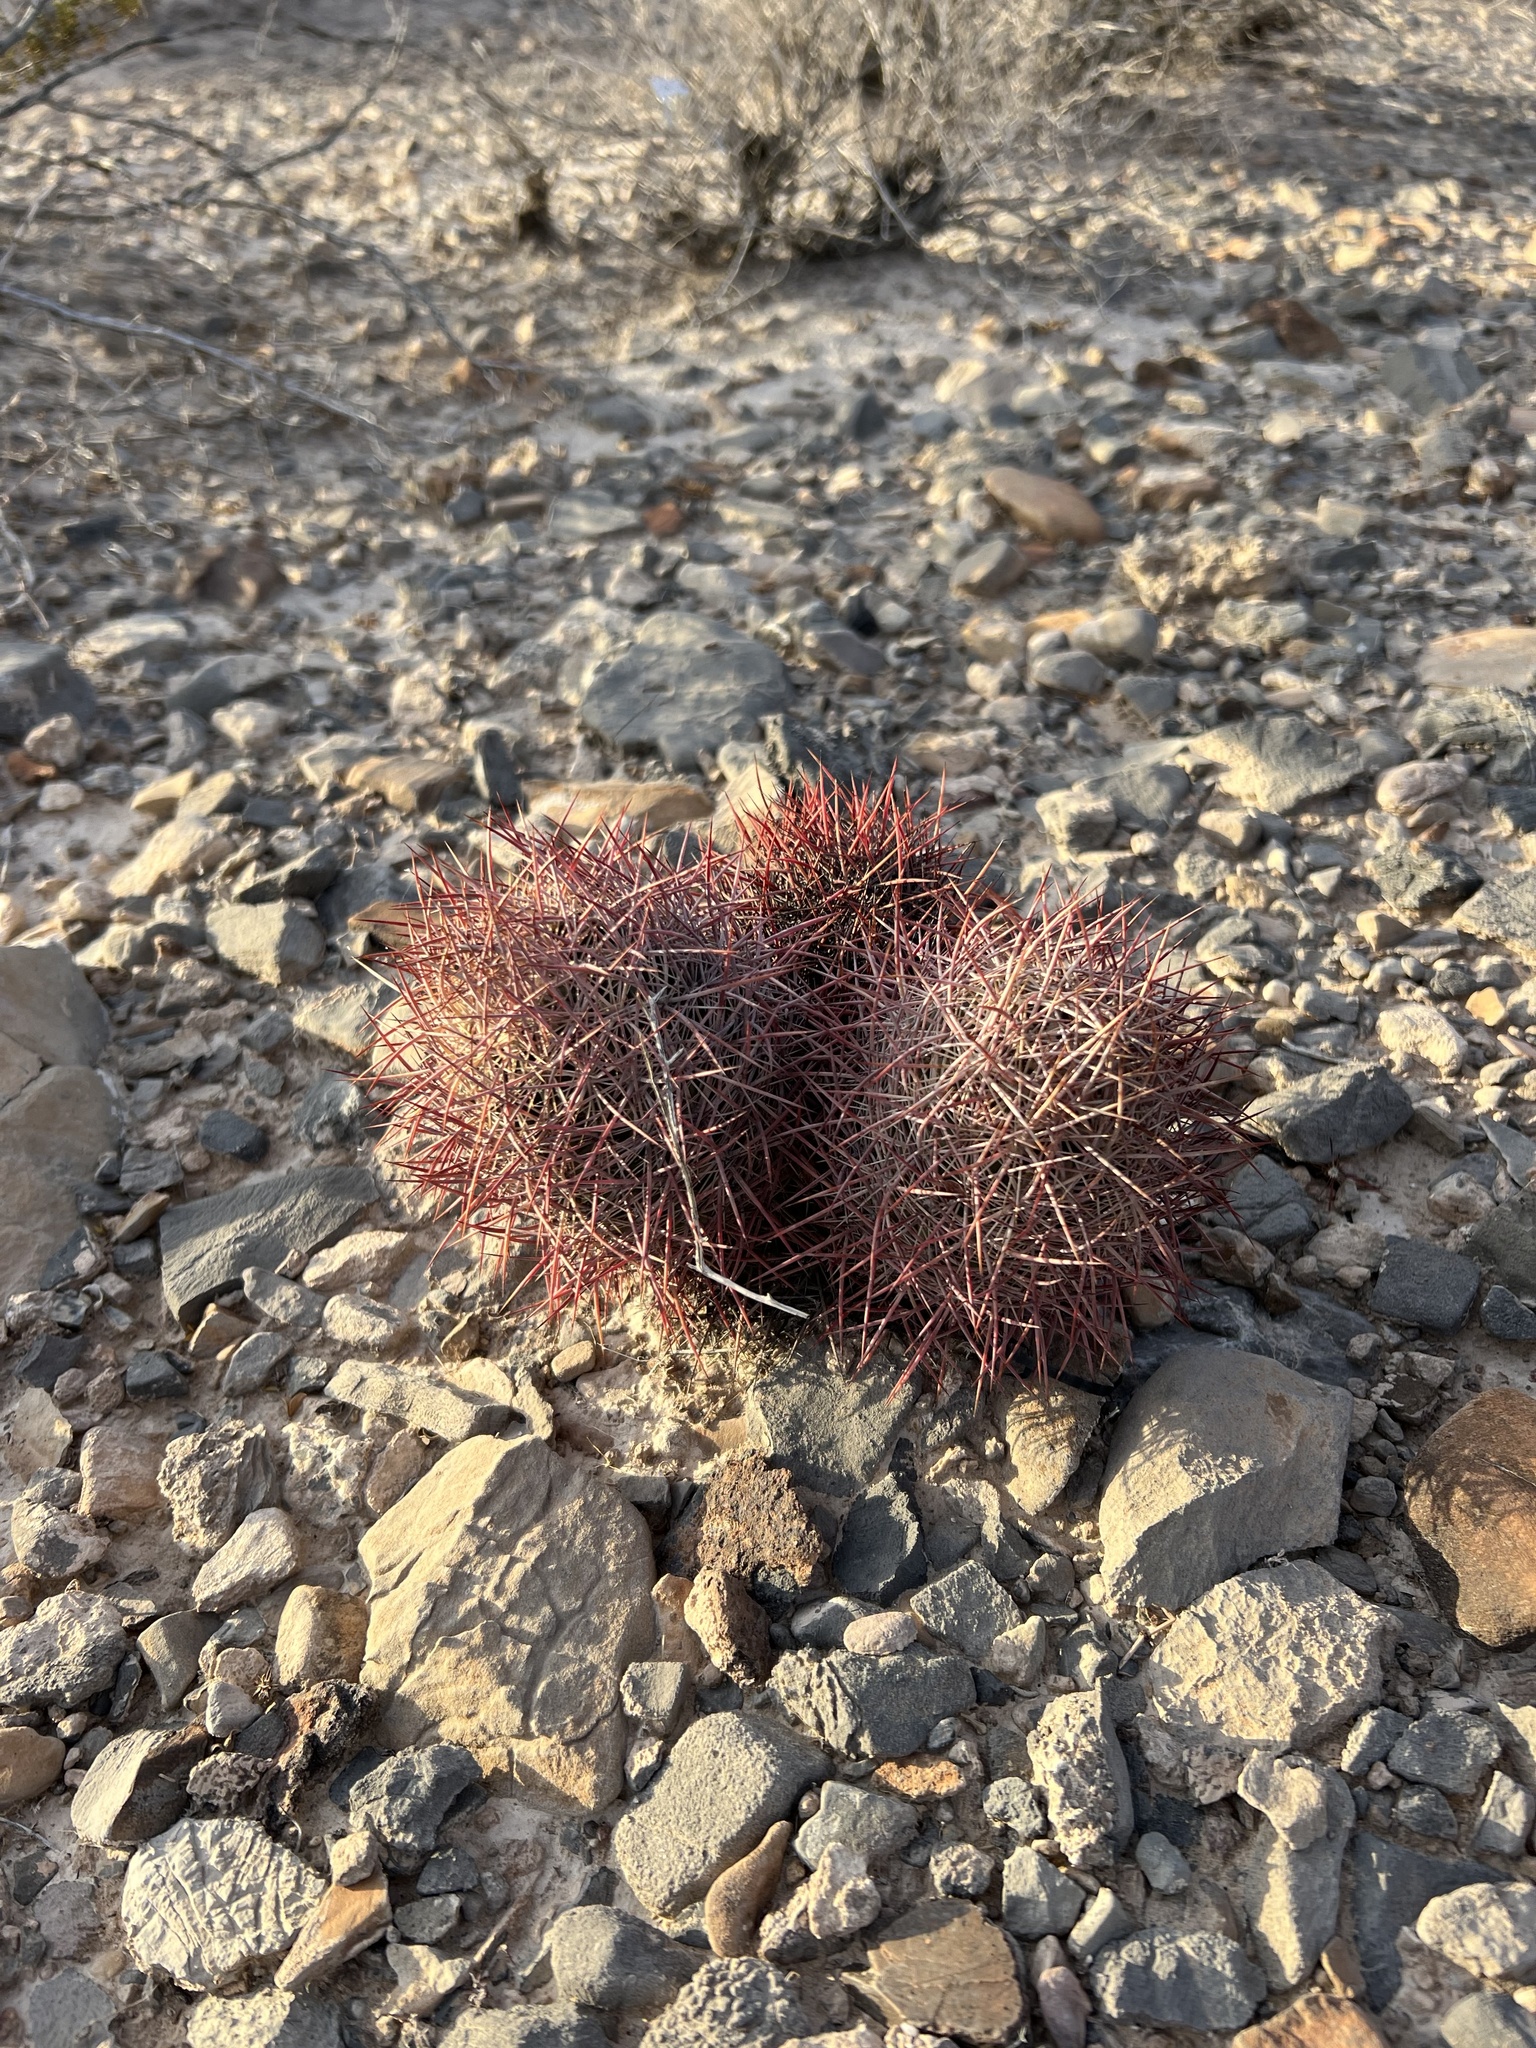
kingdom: Plantae
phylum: Tracheophyta
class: Magnoliopsida
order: Caryophyllales
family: Cactaceae
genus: Sclerocactus
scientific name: Sclerocactus johnsonii
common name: Eight-spine fishhook cactus
